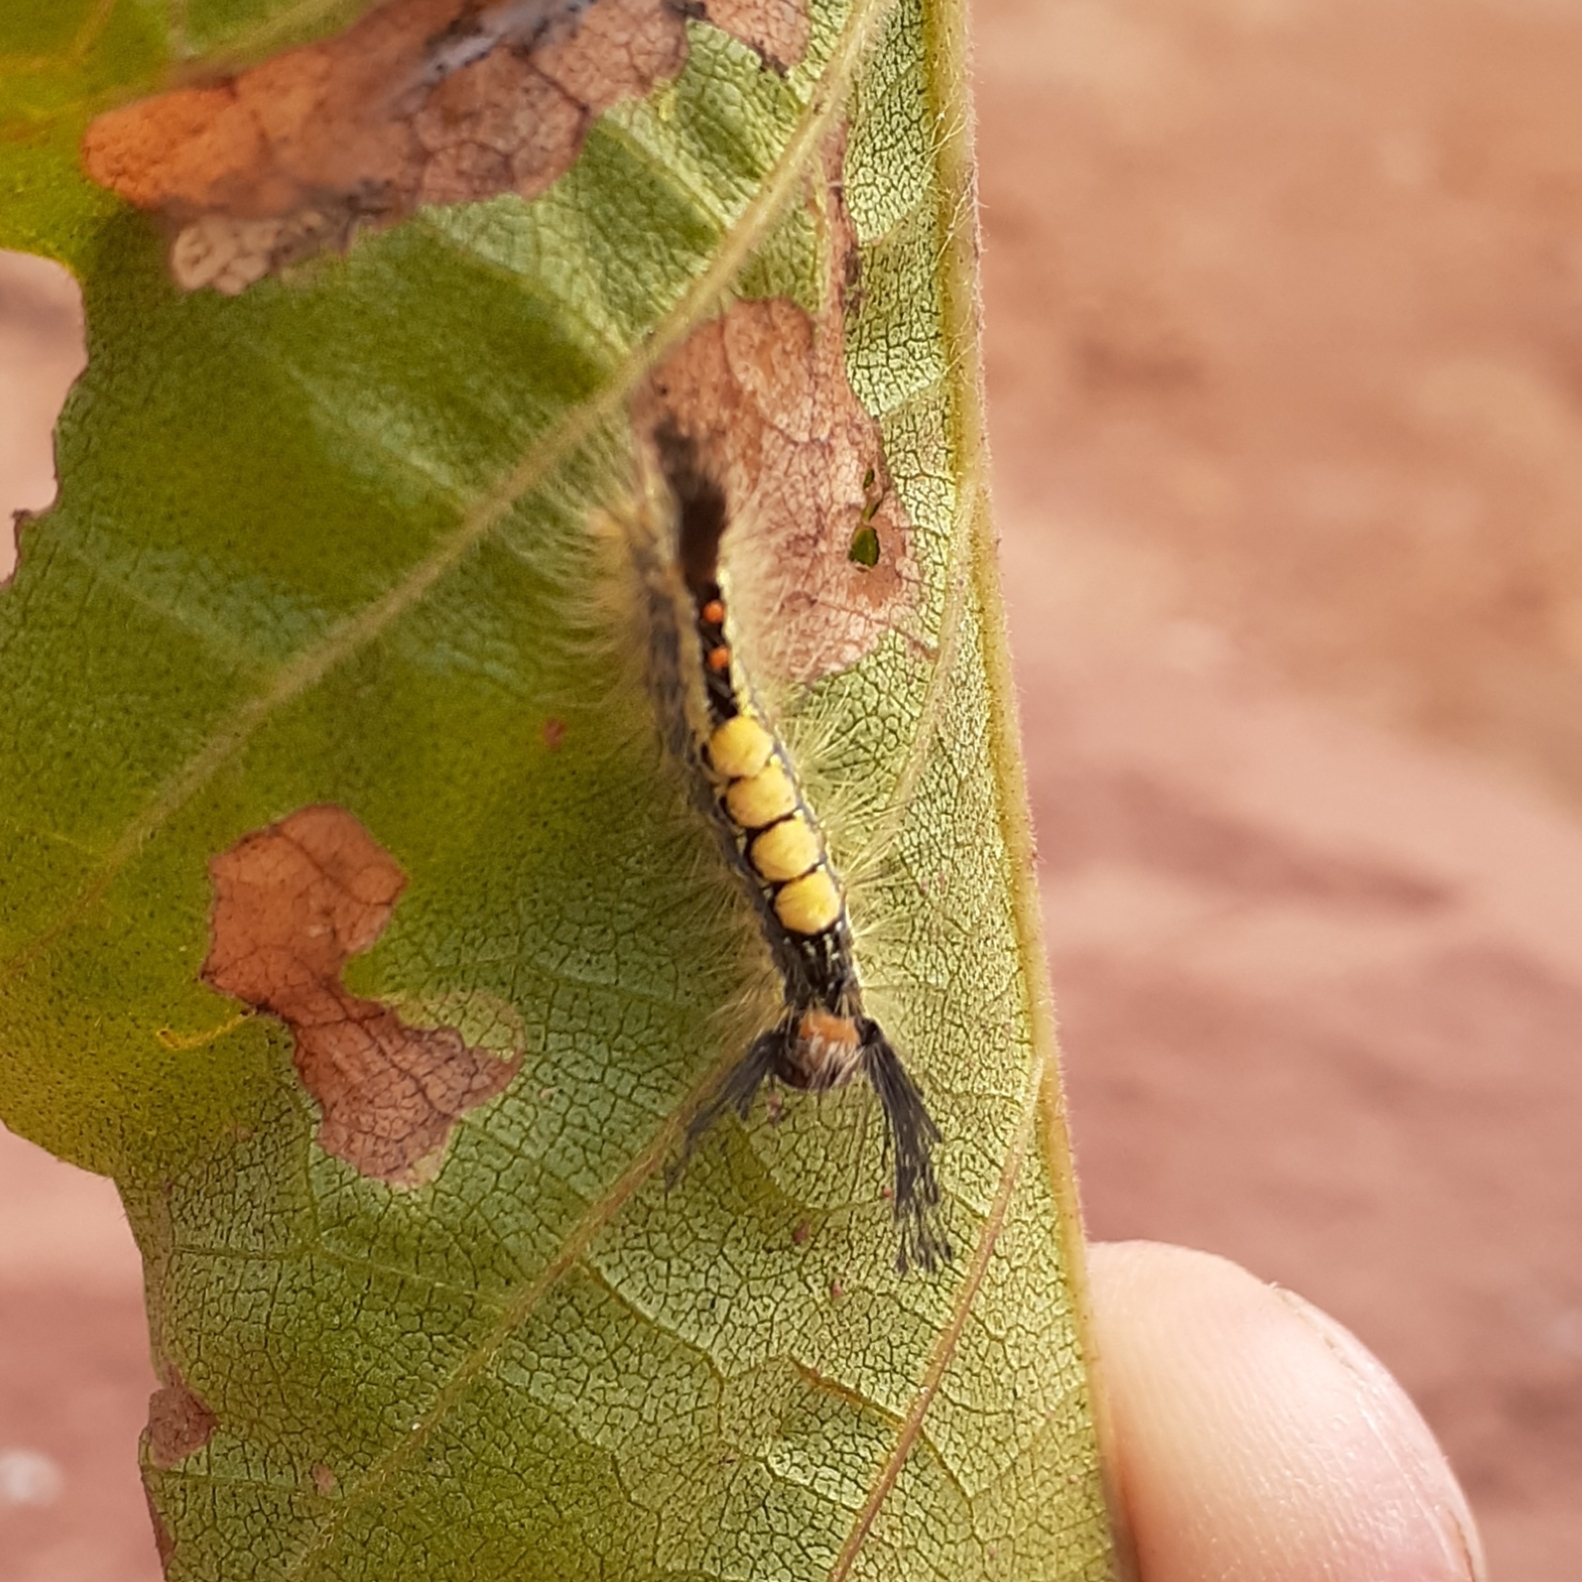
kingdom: Animalia
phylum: Arthropoda
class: Insecta
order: Lepidoptera
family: Erebidae
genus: Orgyia
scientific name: Orgyia leucostigma
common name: White-marked tussock moth
